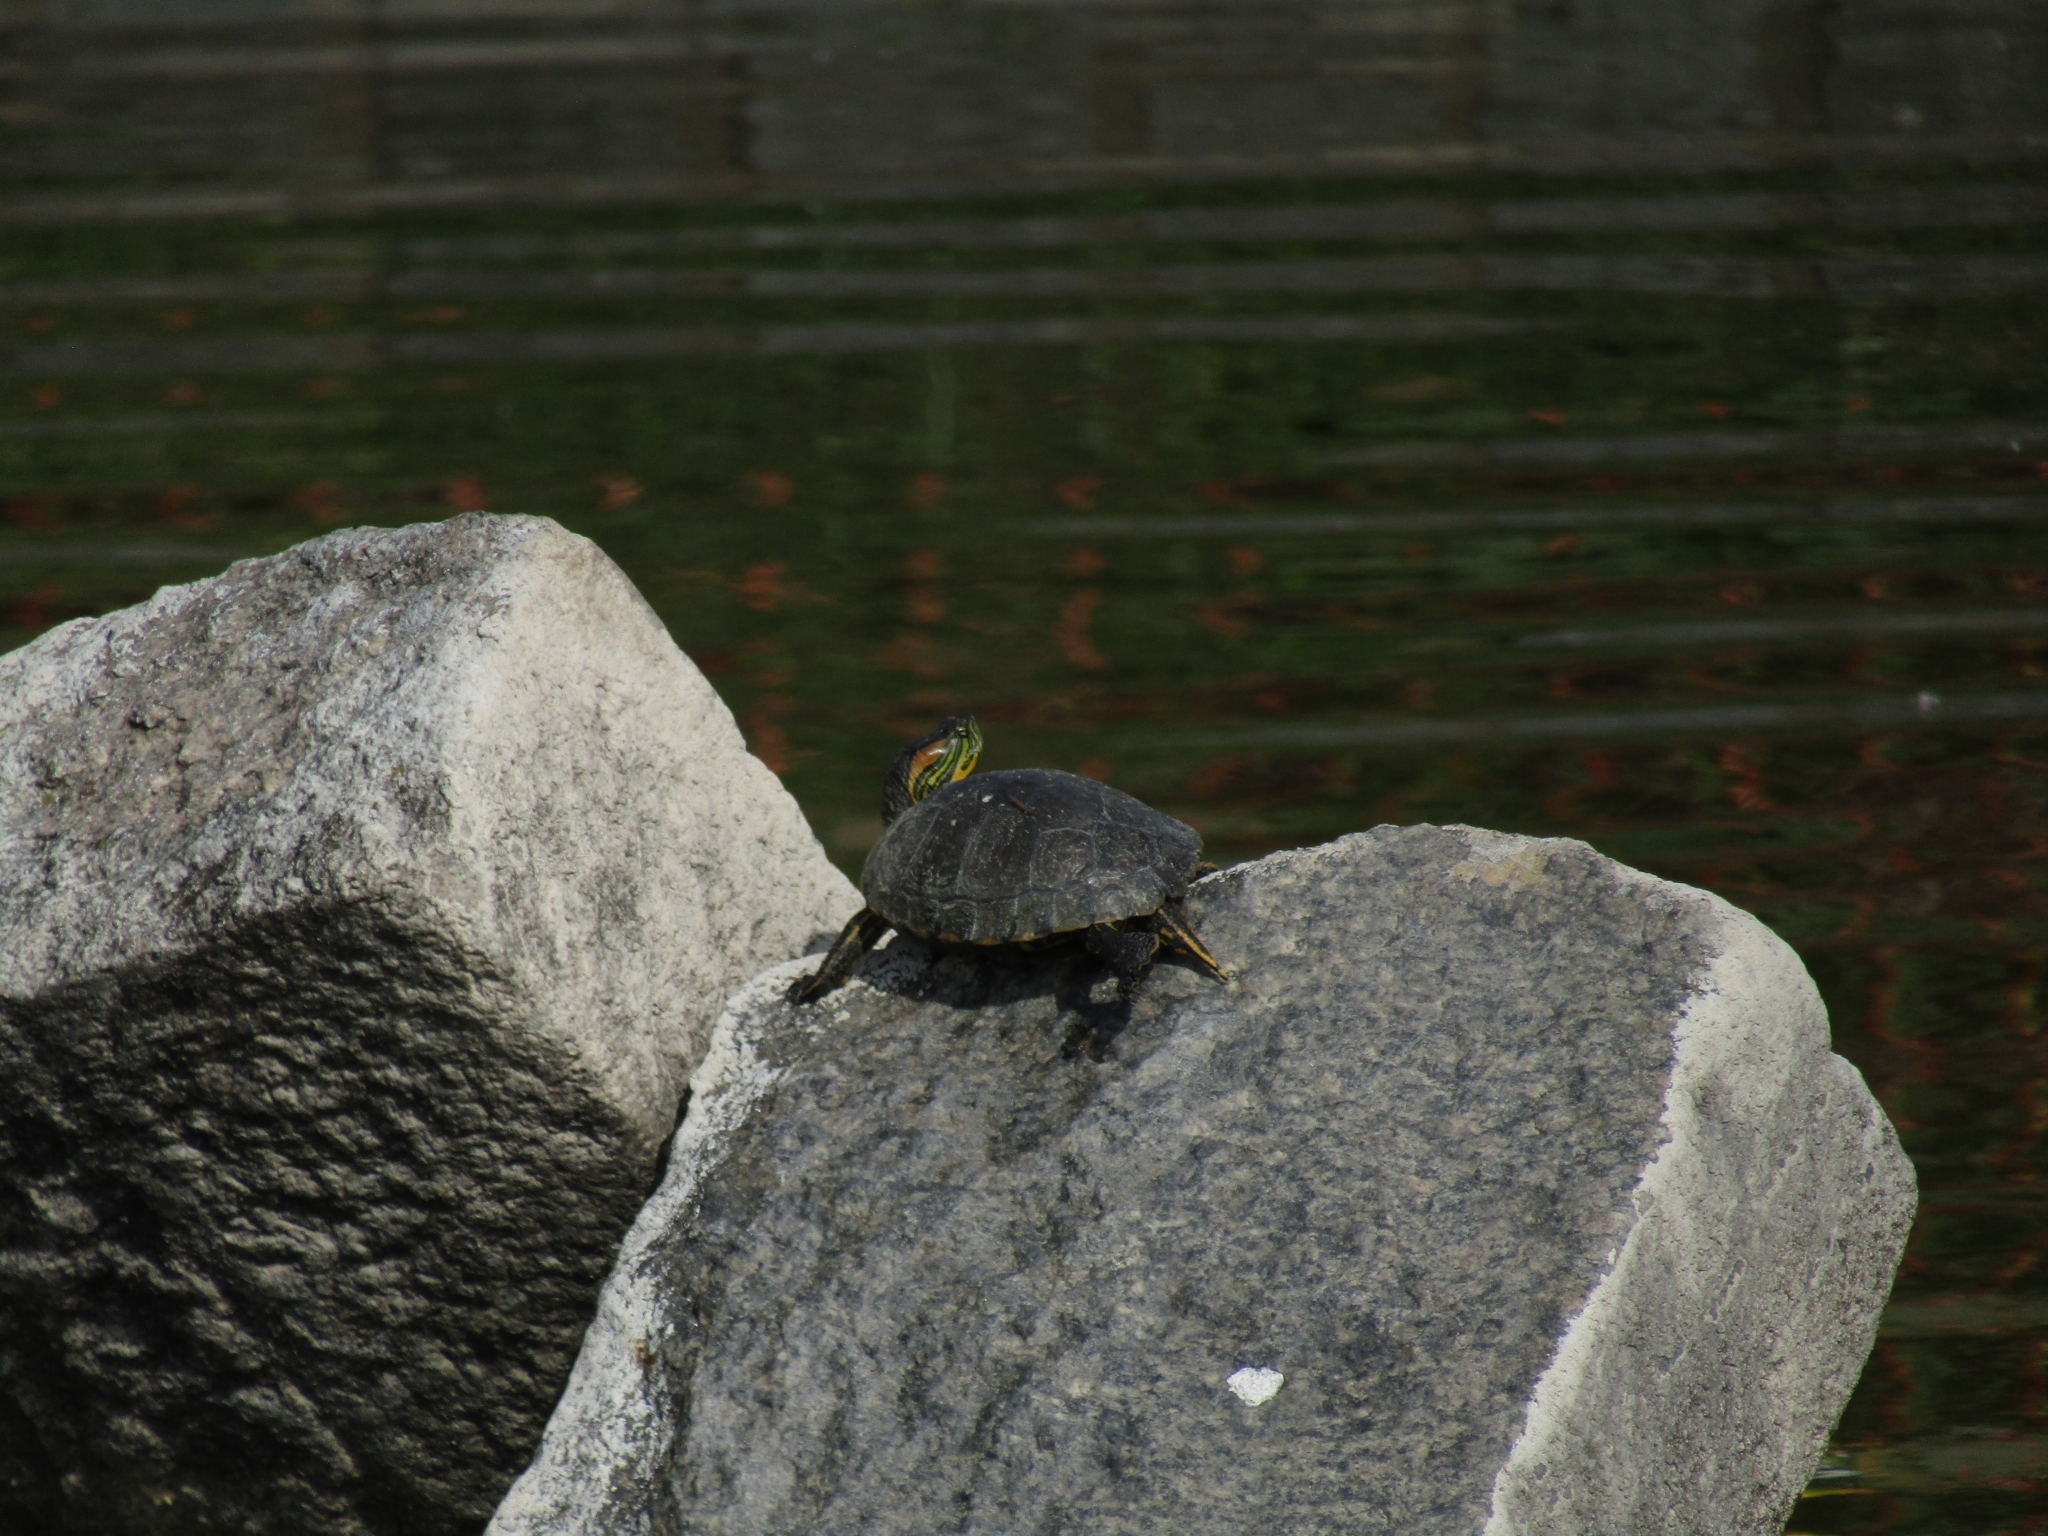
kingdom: Animalia
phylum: Chordata
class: Testudines
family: Emydidae
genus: Trachemys
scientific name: Trachemys dorbigni
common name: Black-bellied slider
